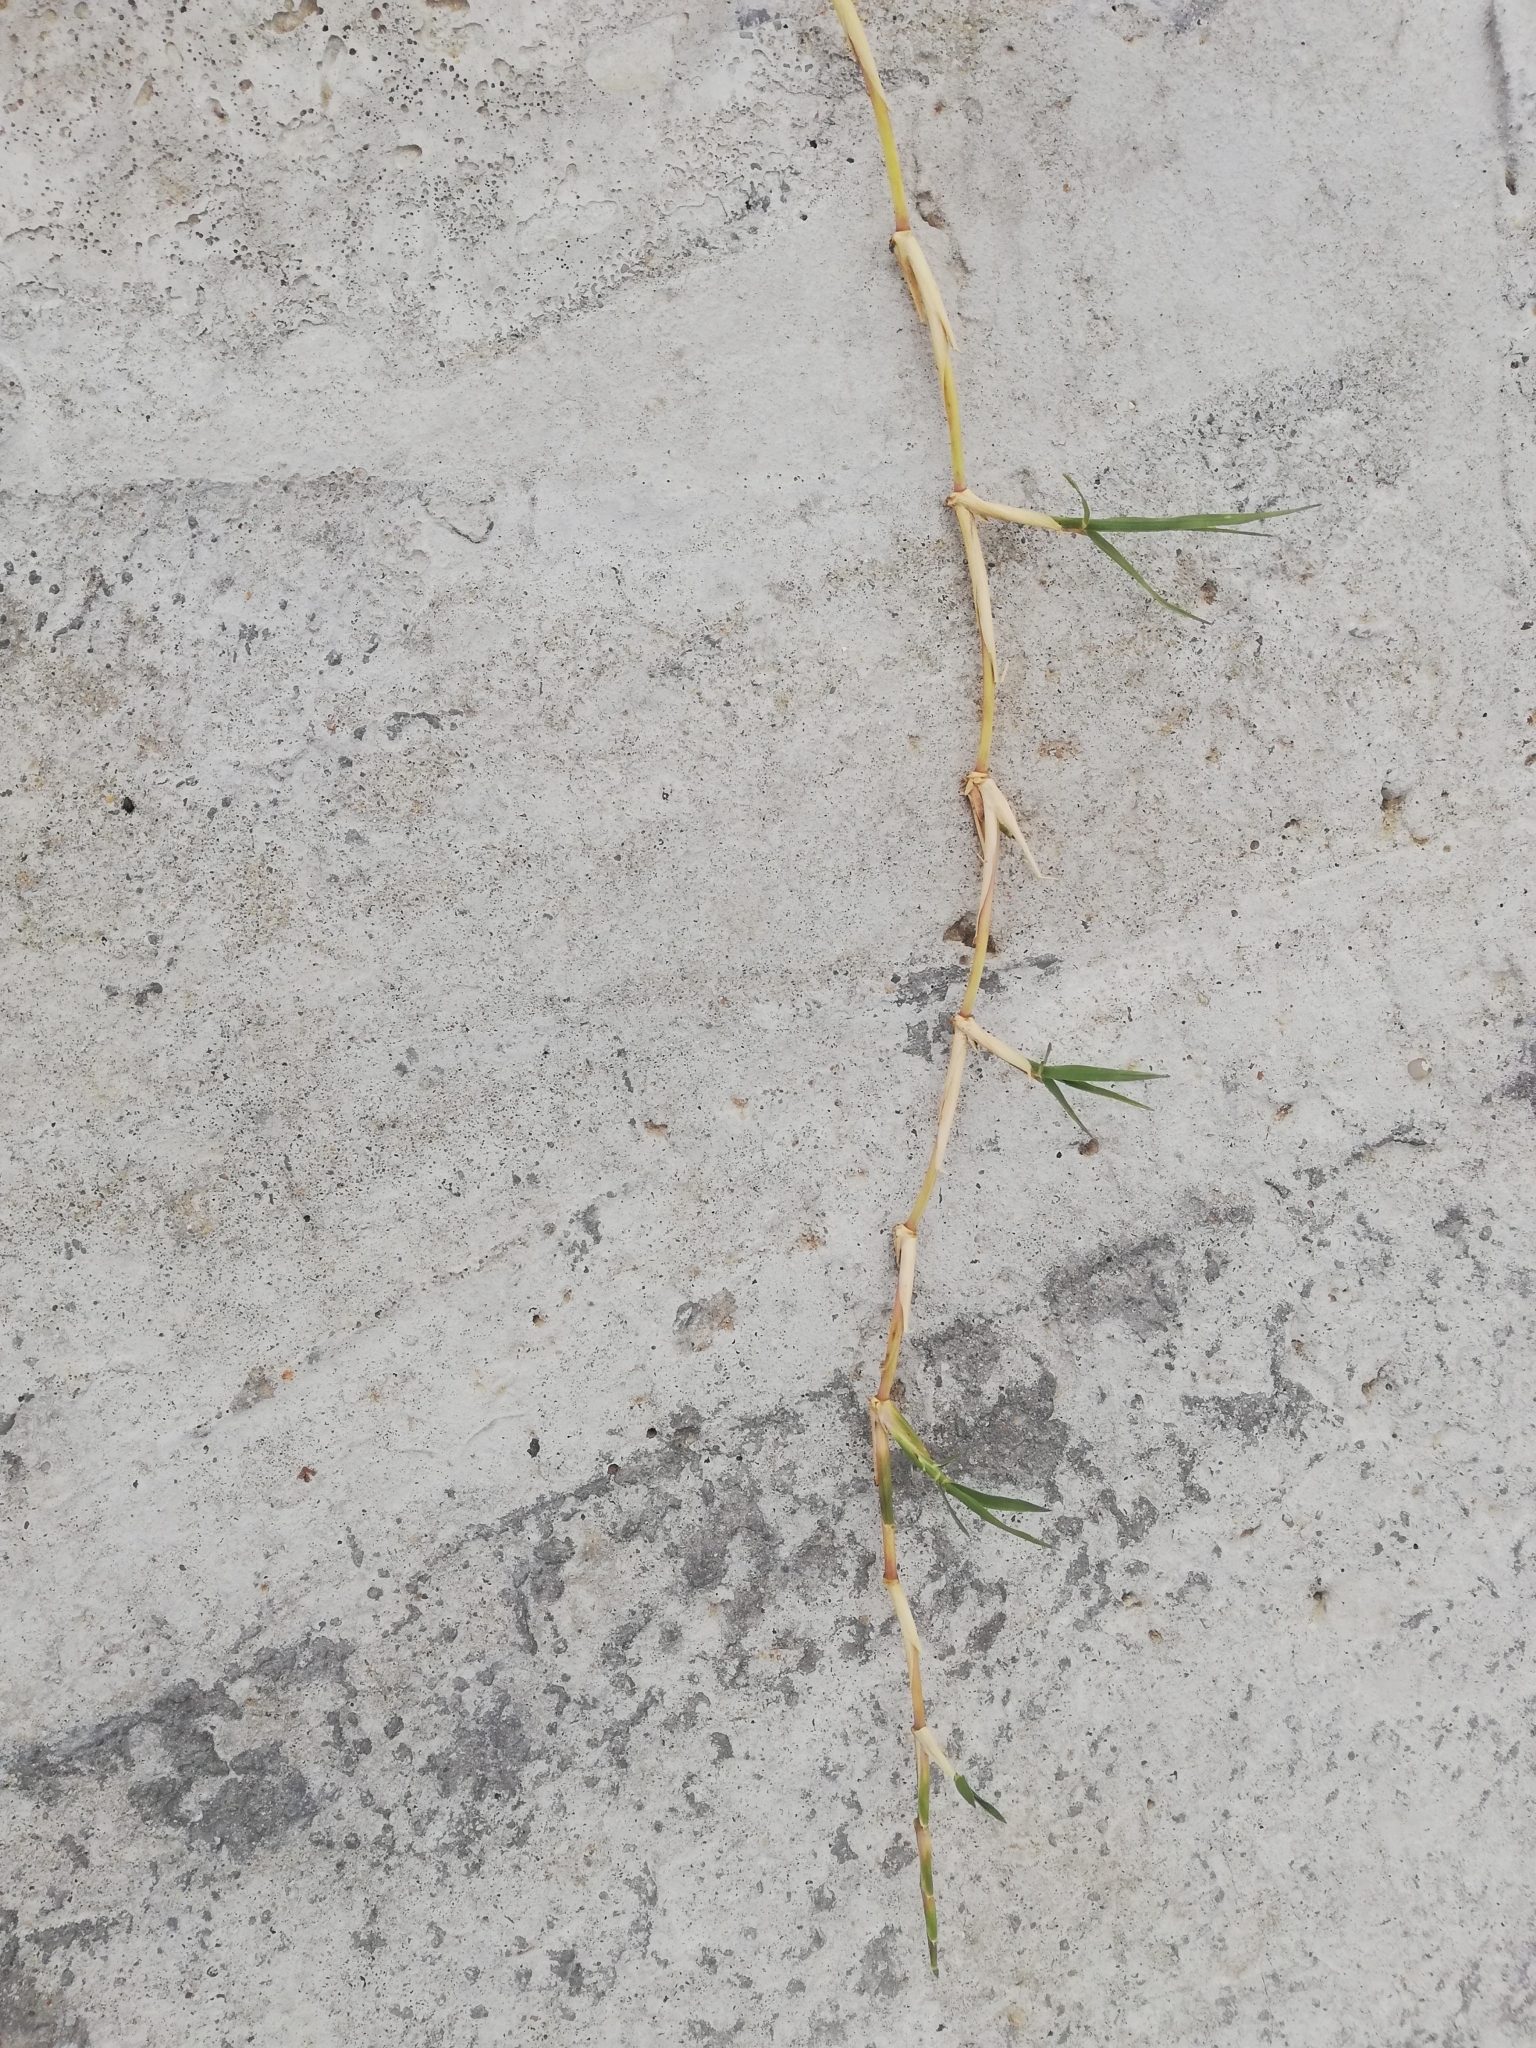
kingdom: Plantae
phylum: Tracheophyta
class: Liliopsida
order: Poales
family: Poaceae
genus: Cynodon
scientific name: Cynodon dactylon
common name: Bermuda grass
